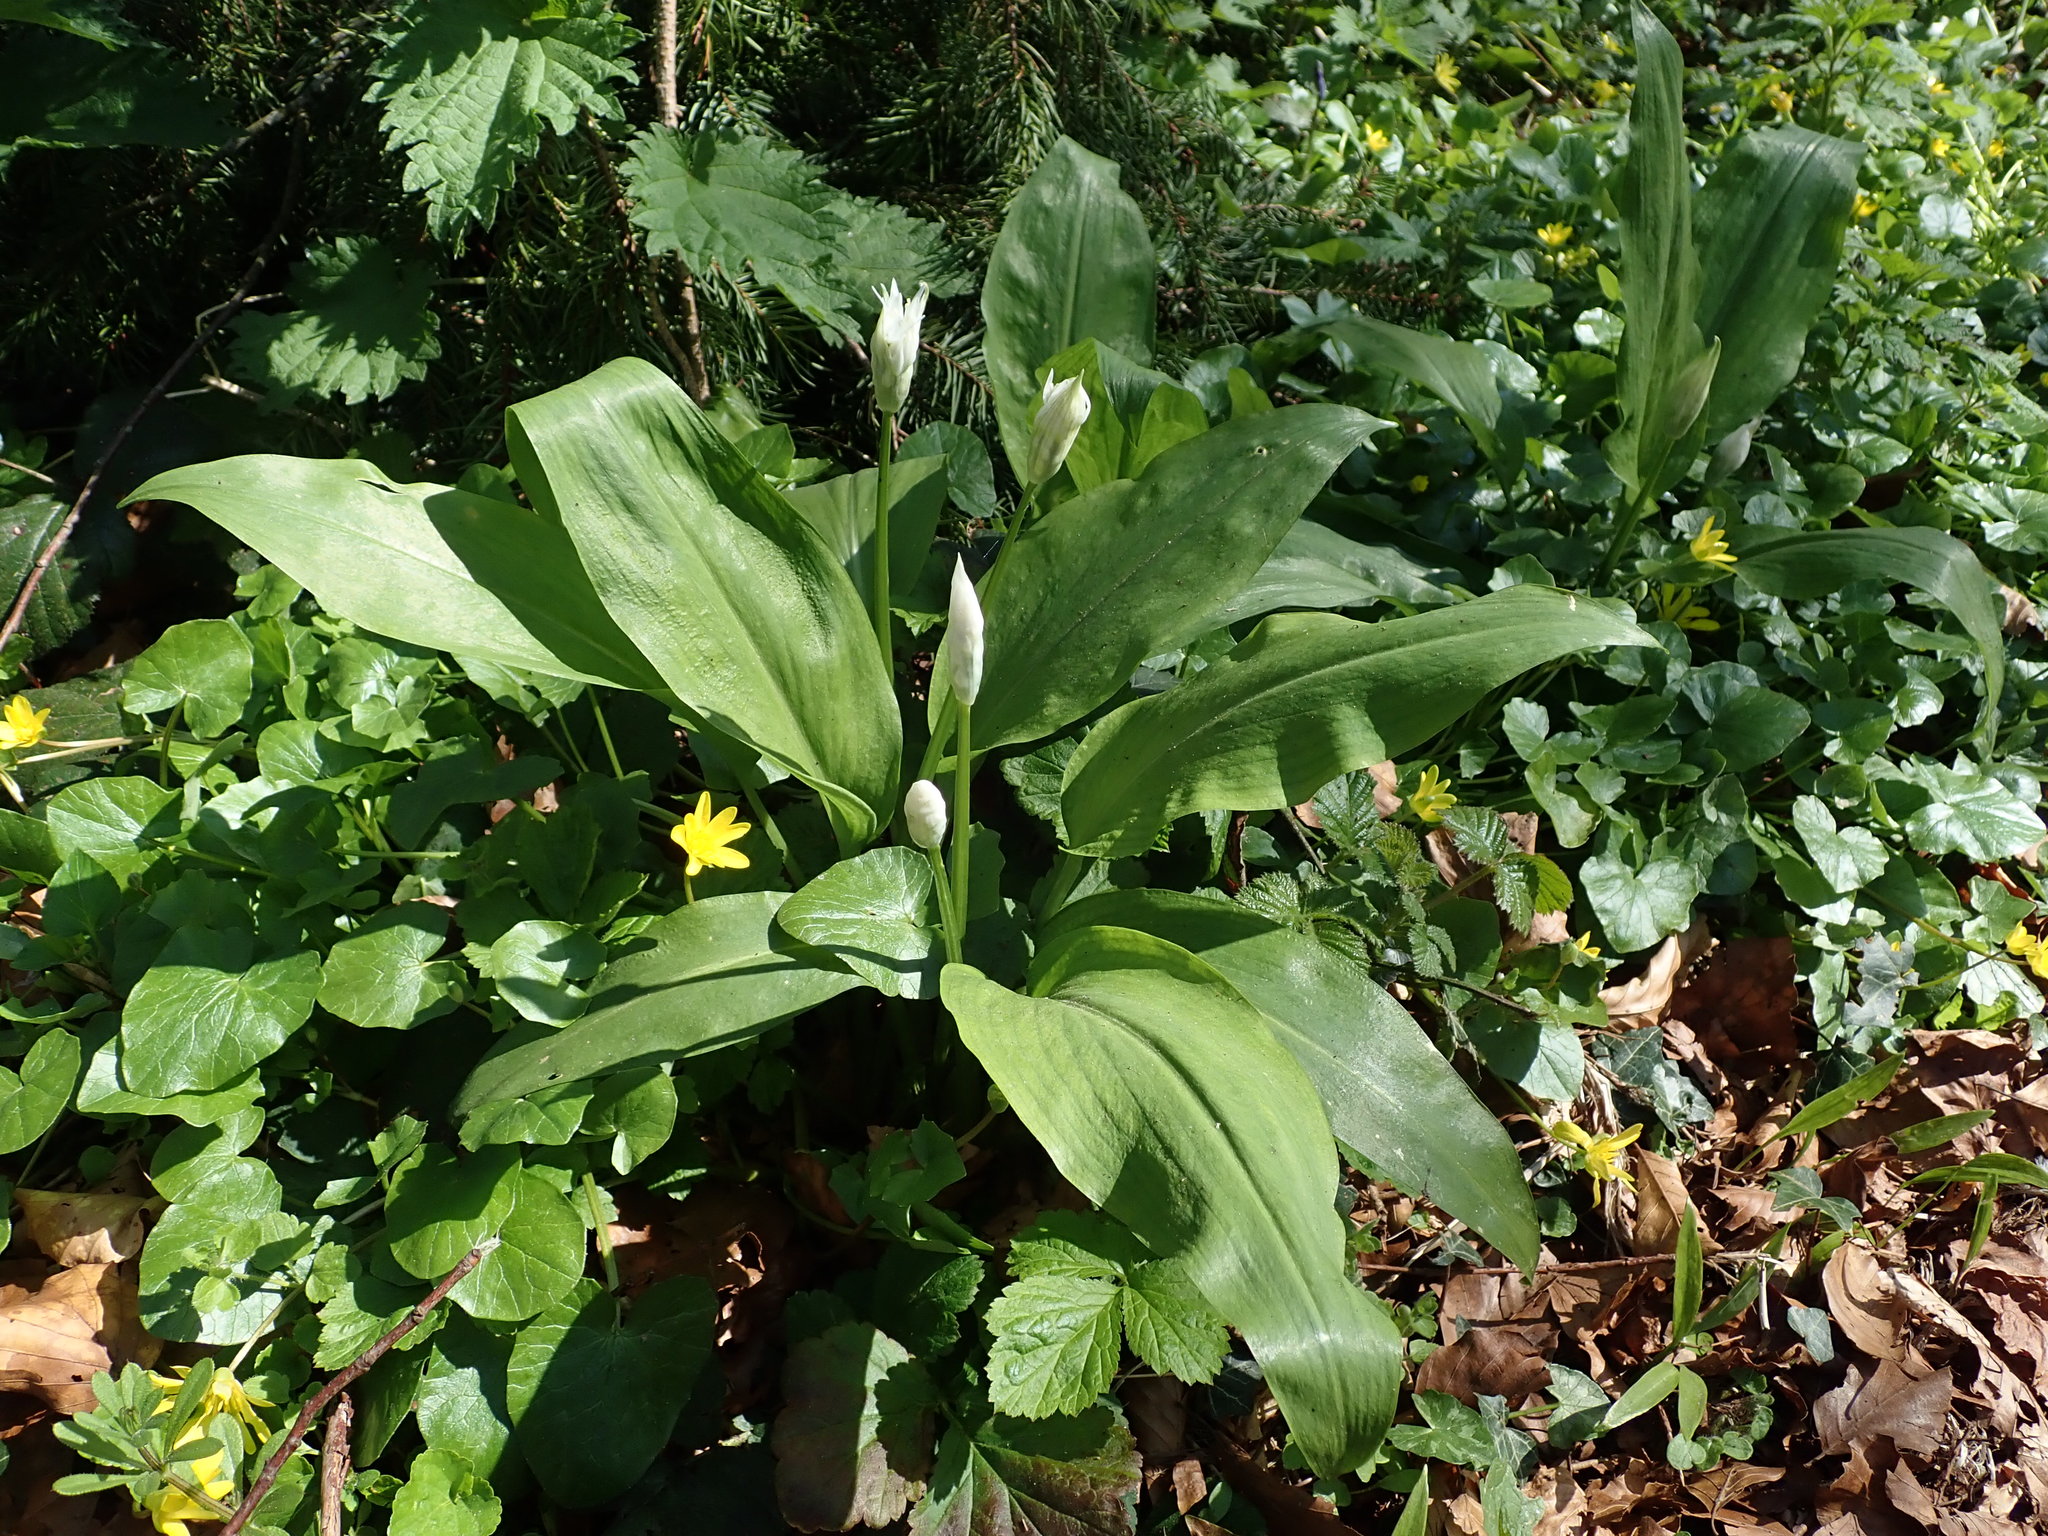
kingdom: Plantae
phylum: Tracheophyta
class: Liliopsida
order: Asparagales
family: Amaryllidaceae
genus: Allium
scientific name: Allium ursinum
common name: Ramsons
